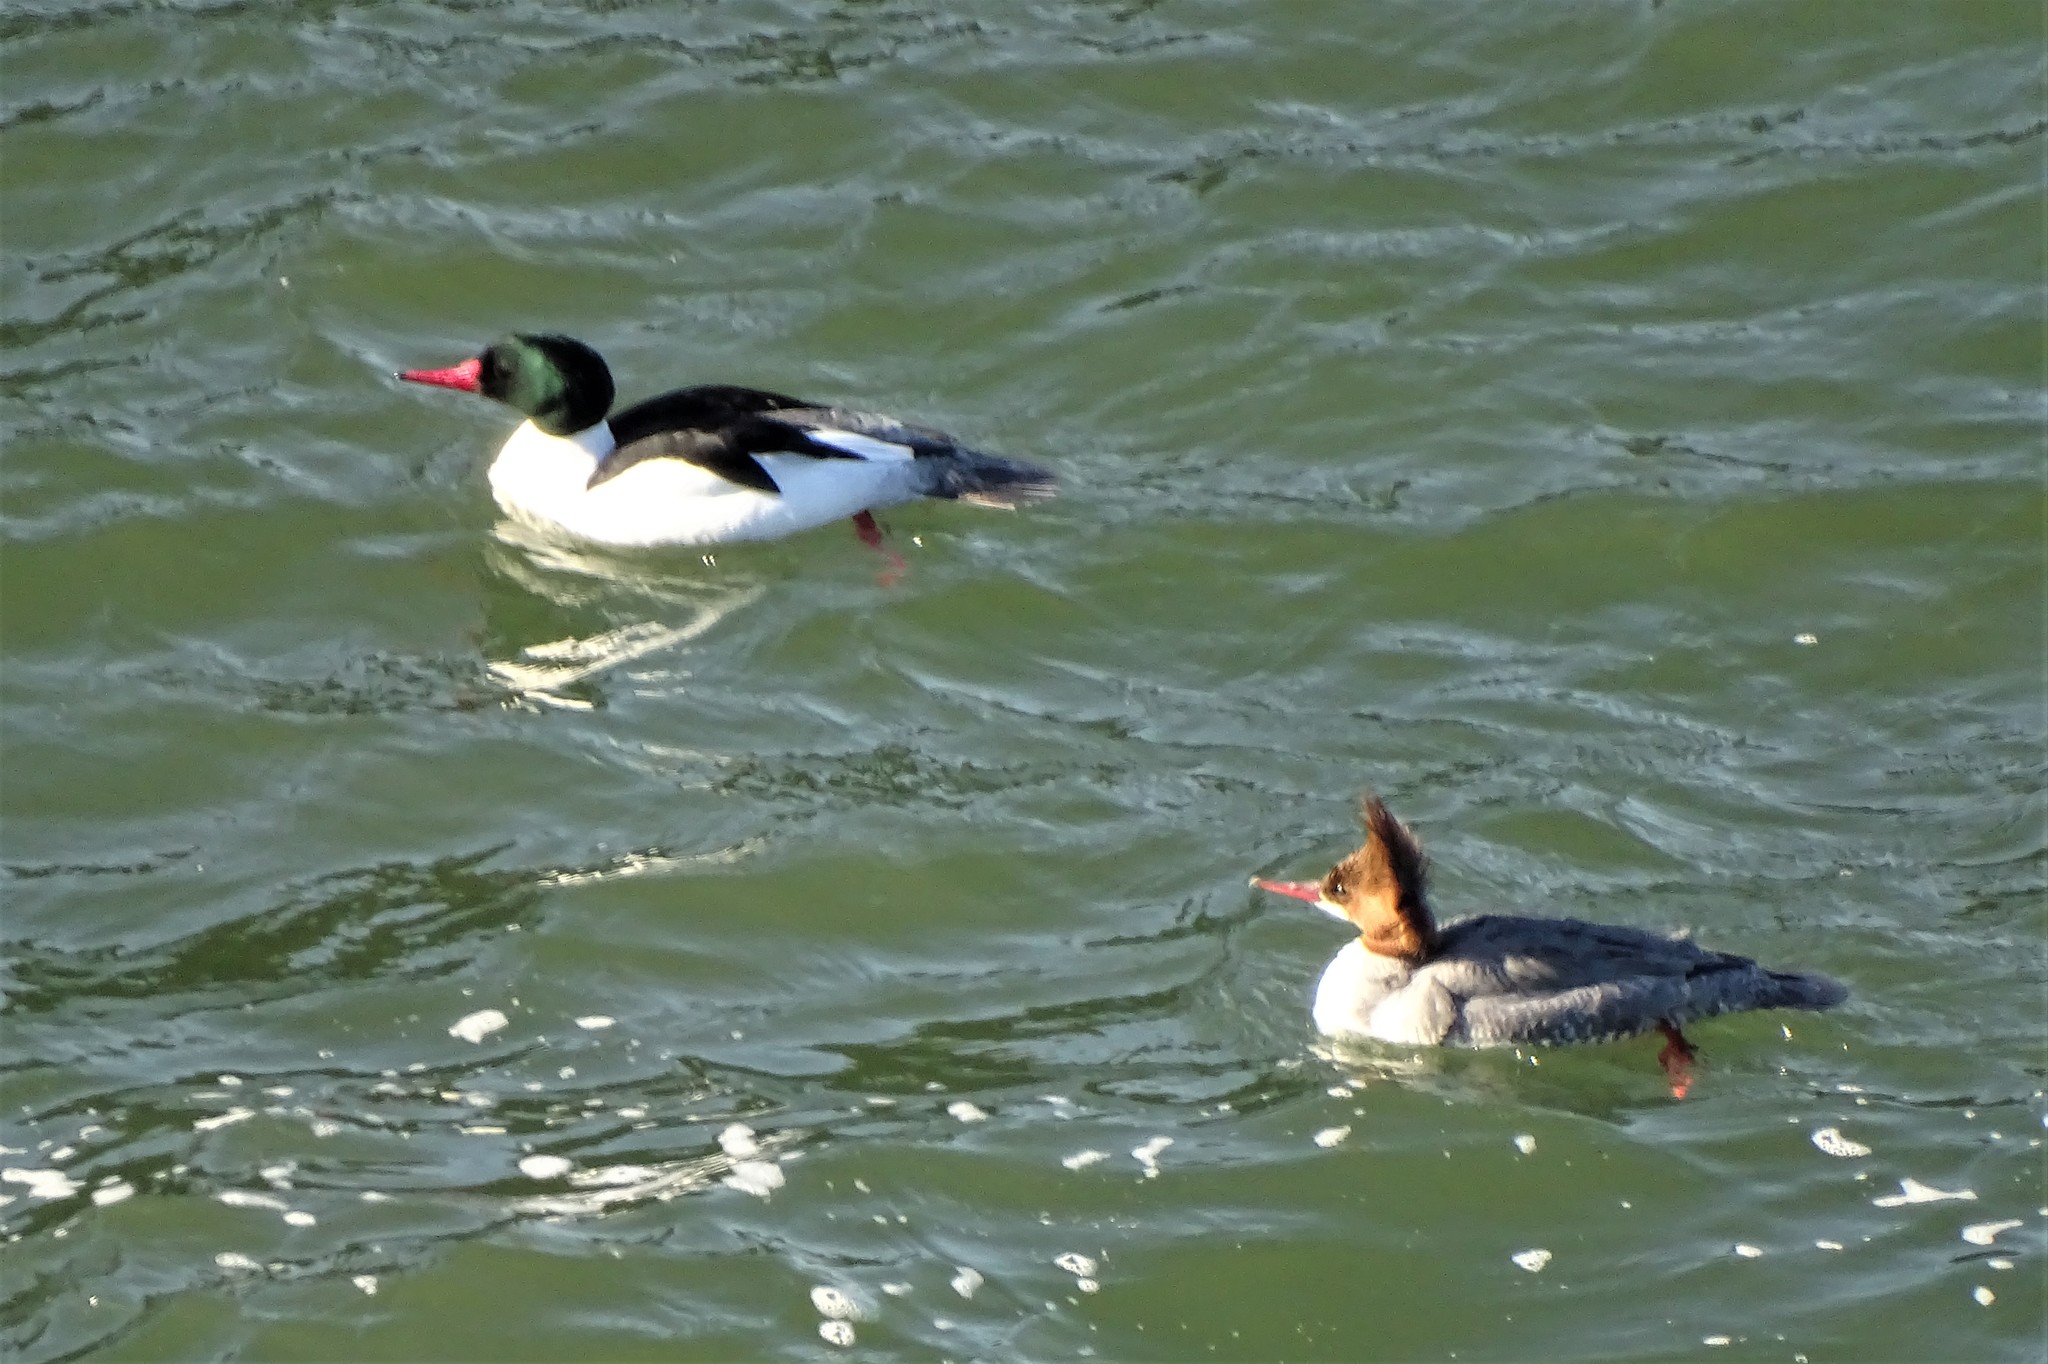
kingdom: Animalia
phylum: Chordata
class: Aves
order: Anseriformes
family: Anatidae
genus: Mergus
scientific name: Mergus merganser
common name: Common merganser
